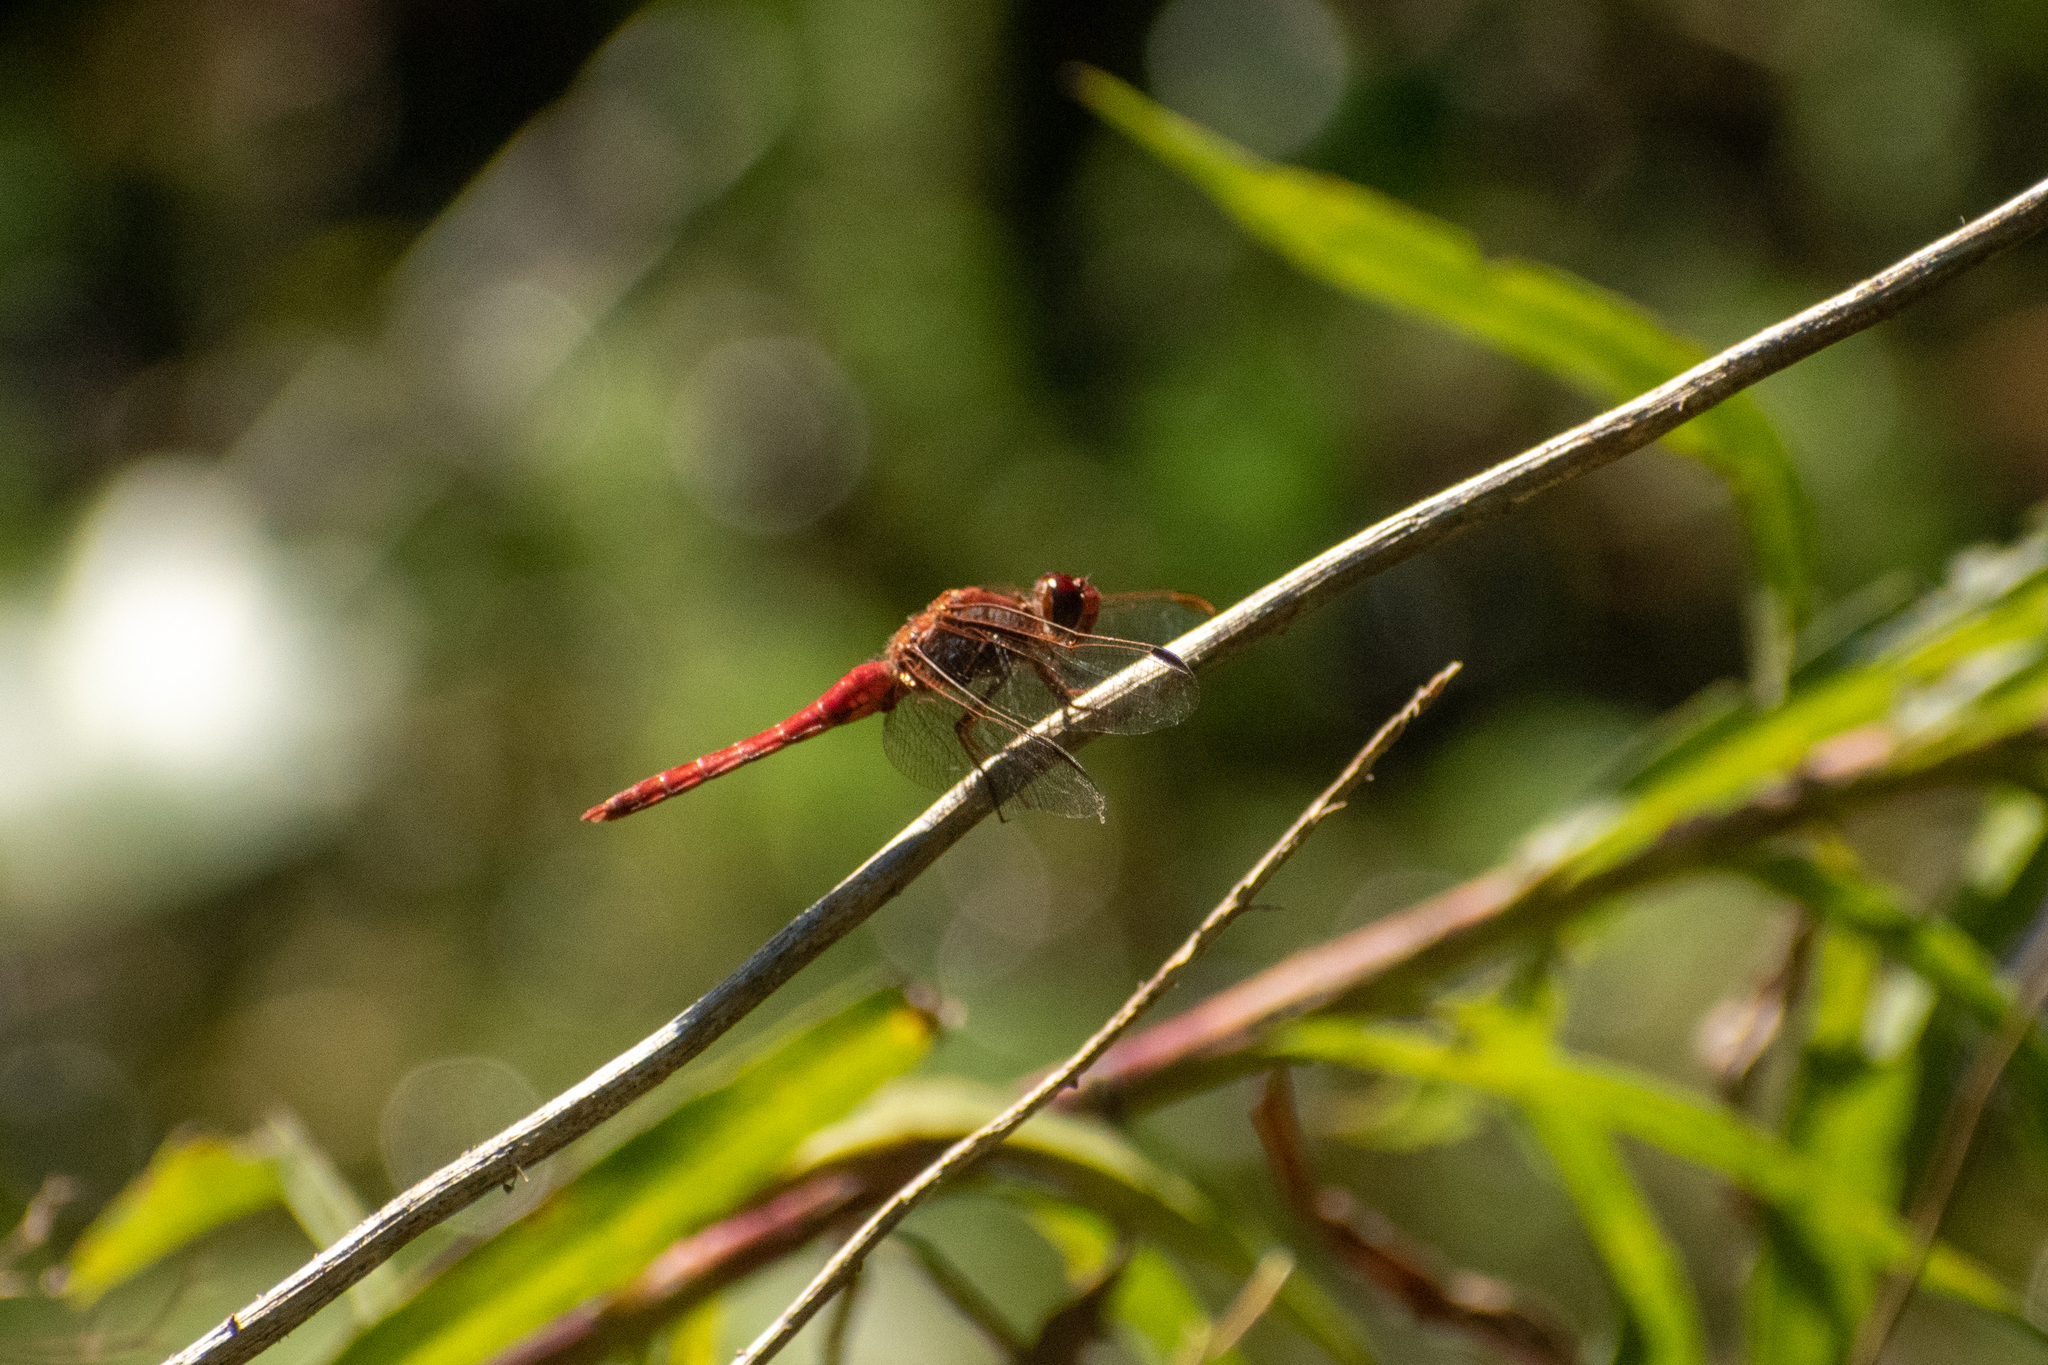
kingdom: Animalia
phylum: Arthropoda
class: Insecta
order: Odonata
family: Libellulidae
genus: Orthemis
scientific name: Orthemis nodiplaga
